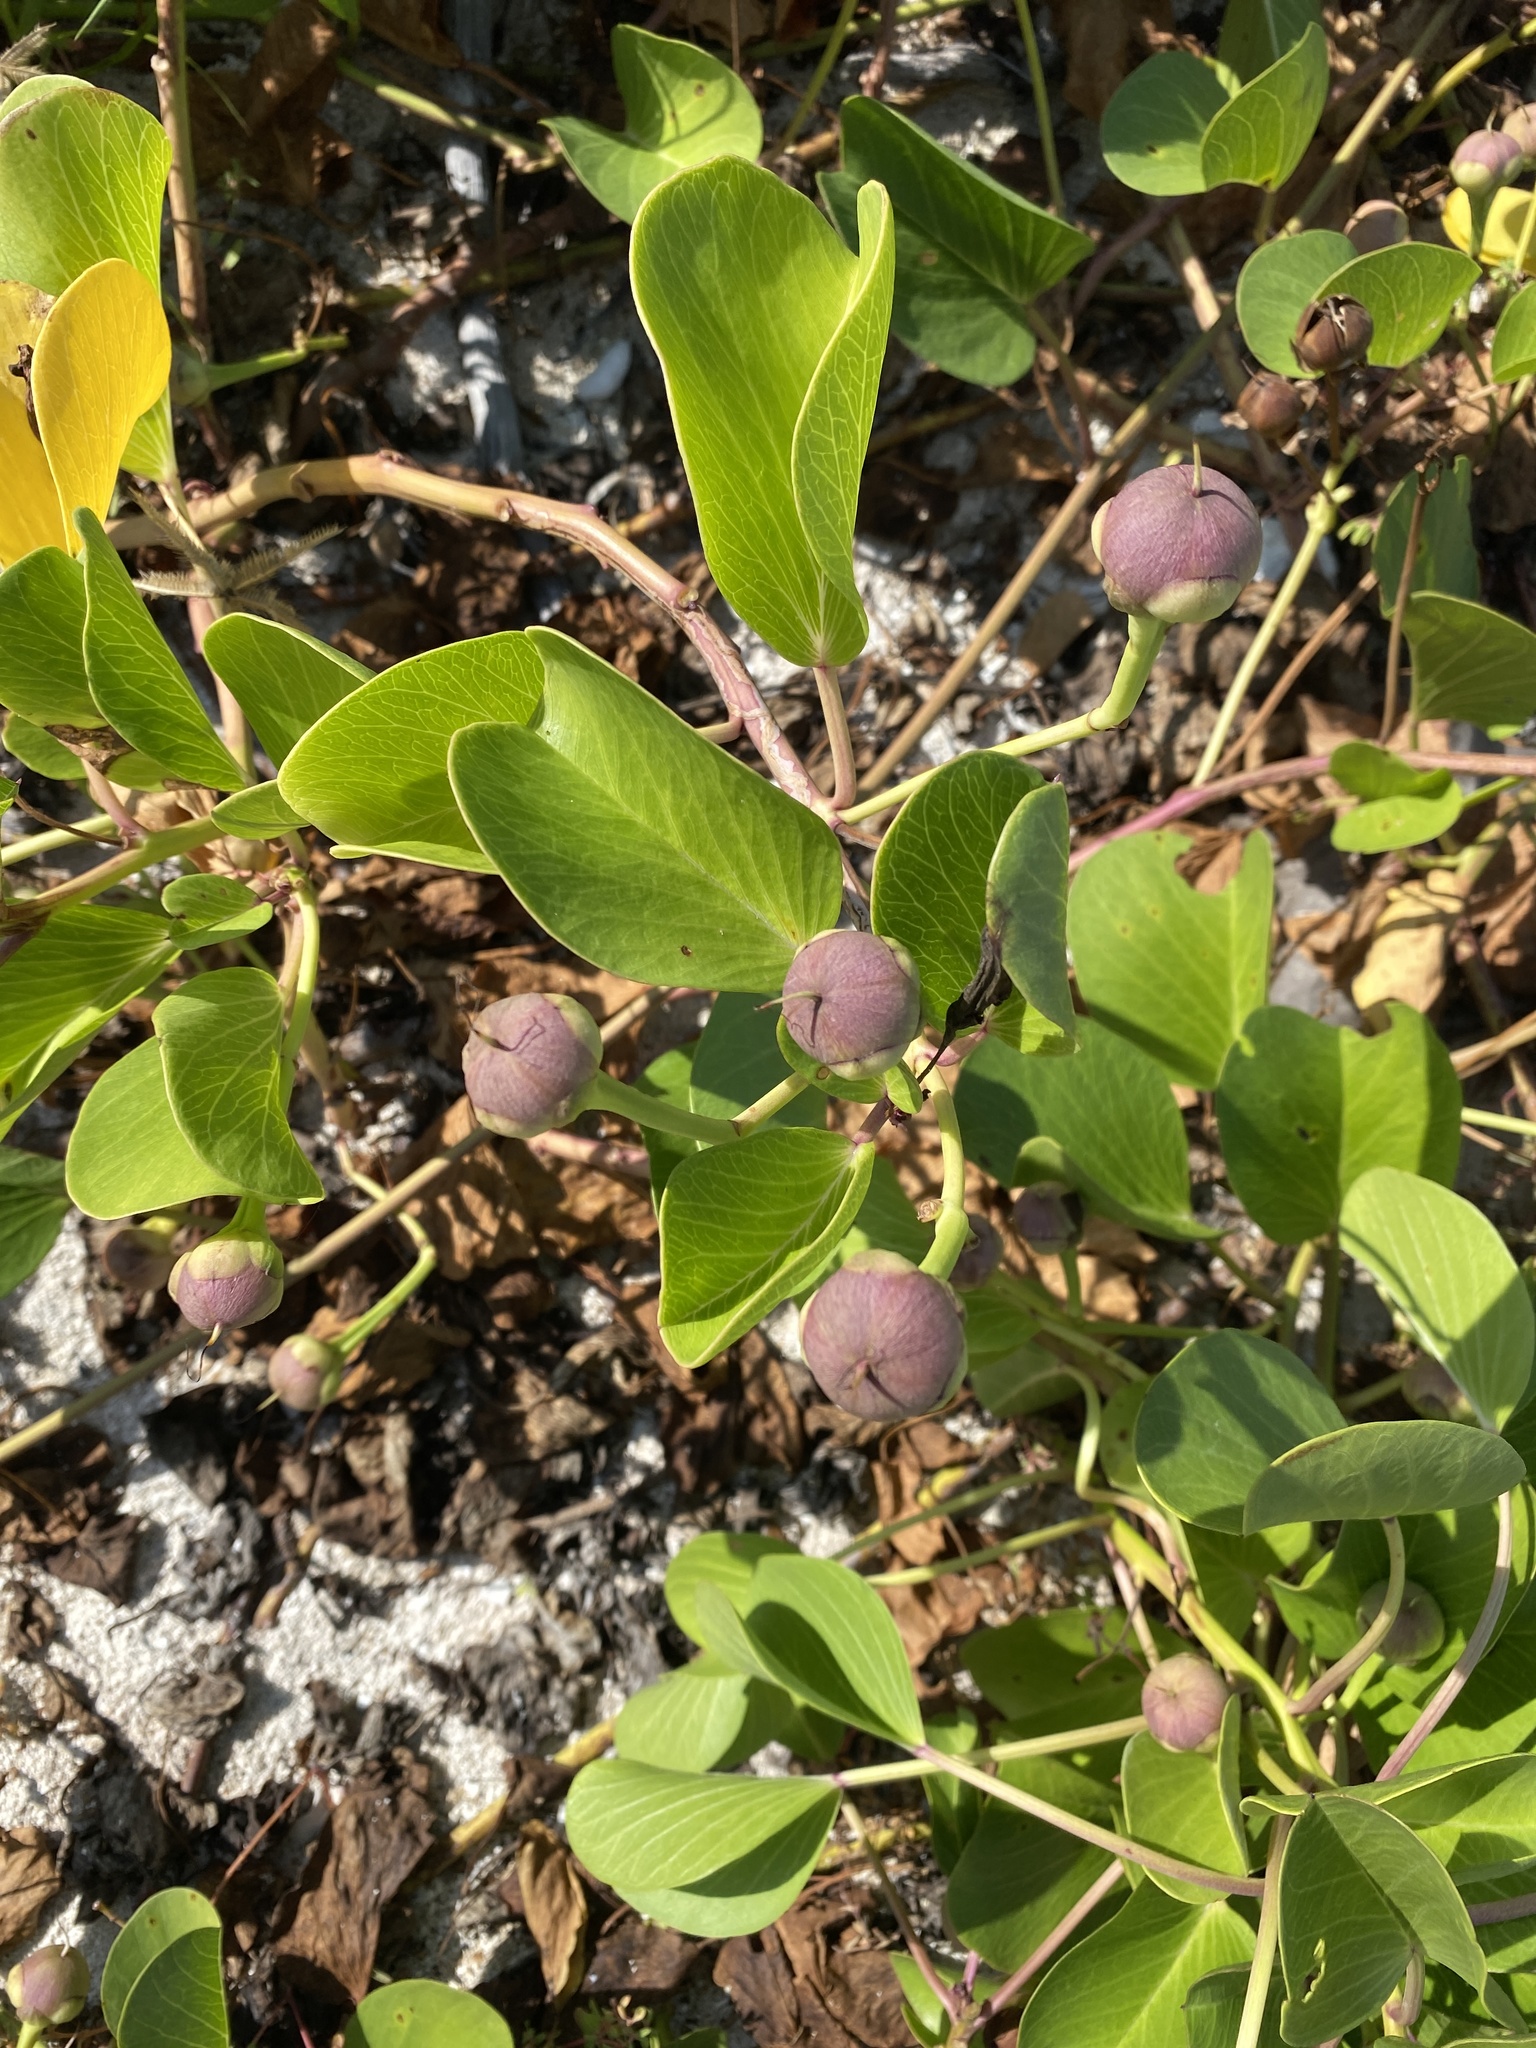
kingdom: Plantae
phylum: Tracheophyta
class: Magnoliopsida
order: Solanales
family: Convolvulaceae
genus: Ipomoea
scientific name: Ipomoea pes-caprae
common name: Beach morning glory
